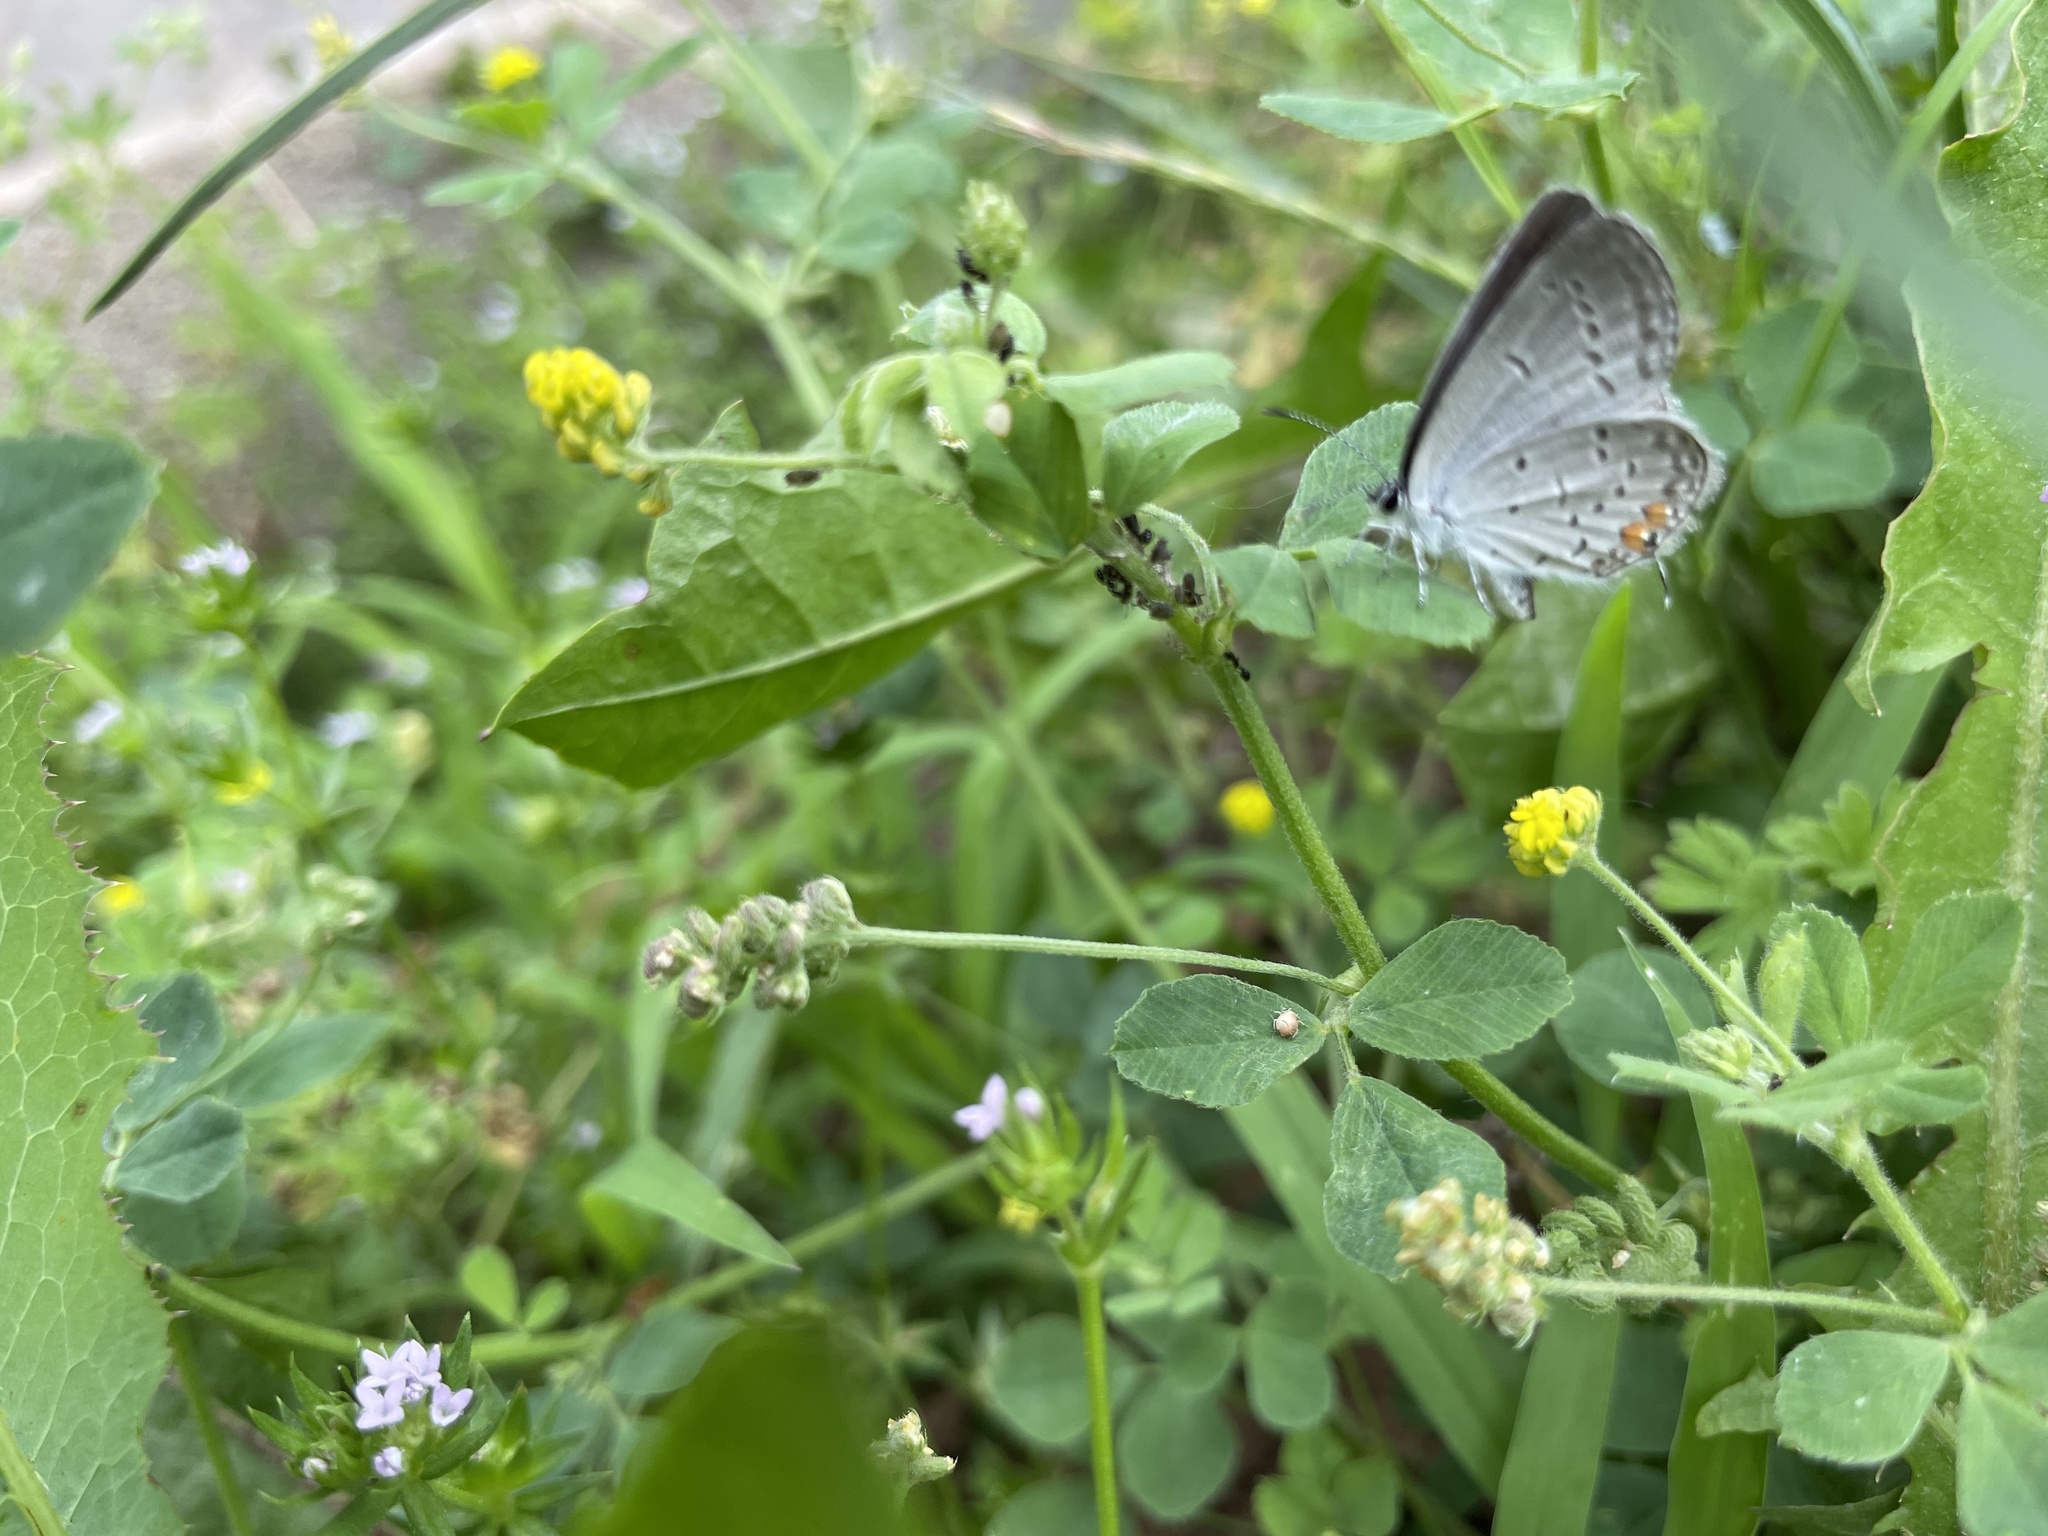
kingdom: Animalia
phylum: Arthropoda
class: Insecta
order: Lepidoptera
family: Lycaenidae
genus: Elkalyce
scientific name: Elkalyce comyntas
